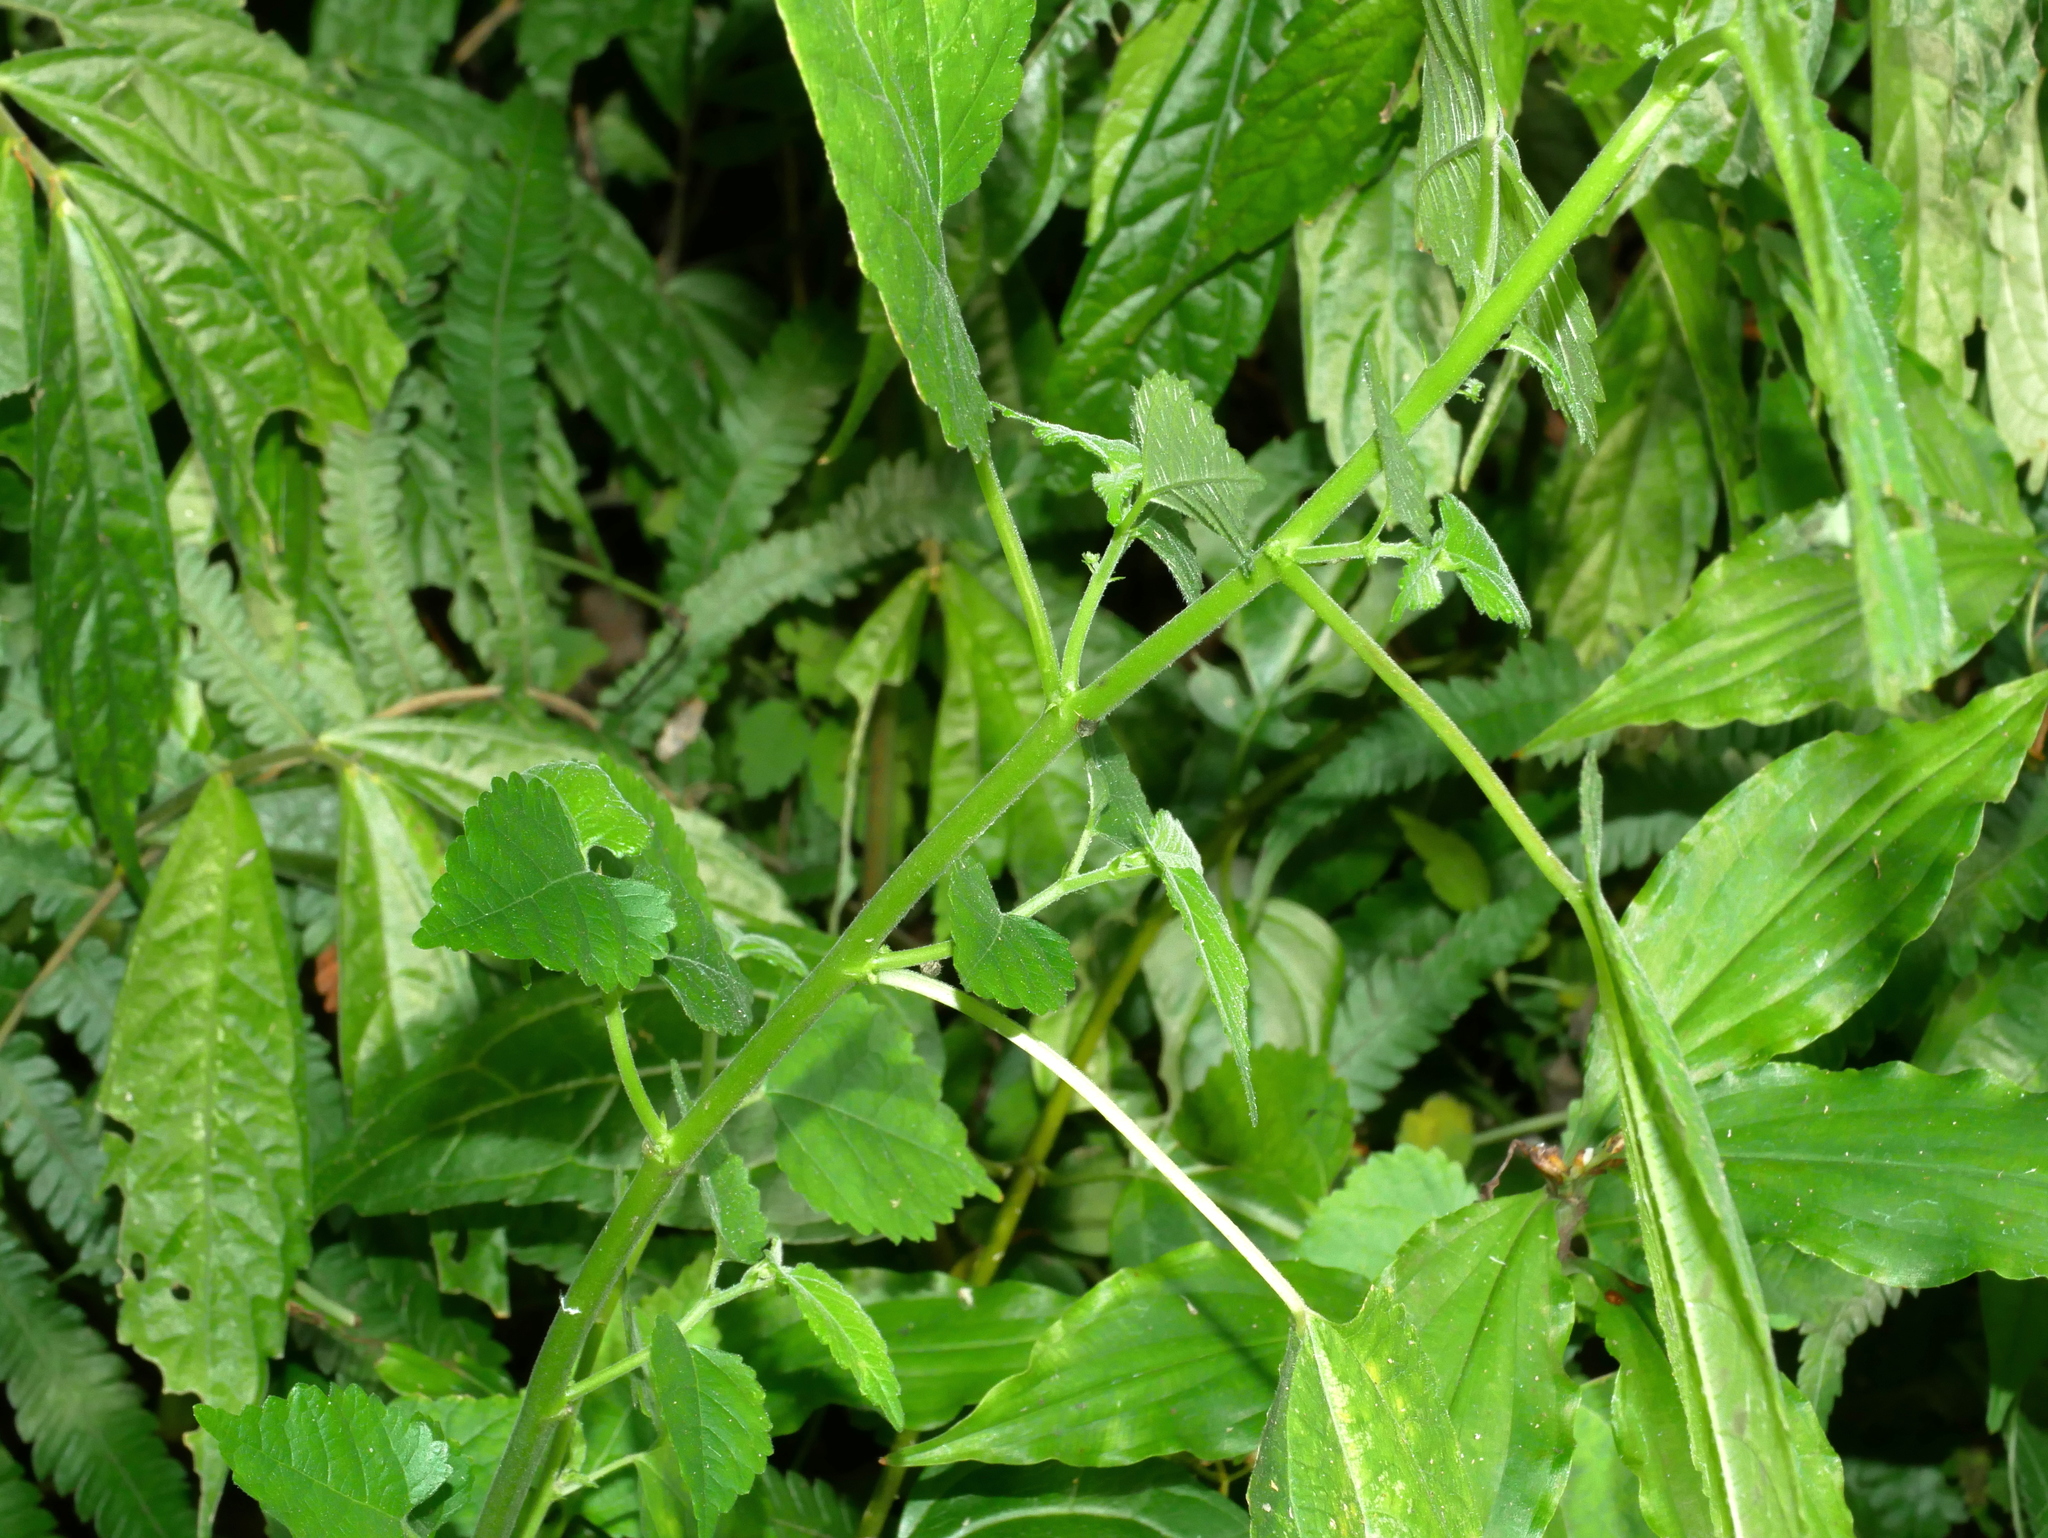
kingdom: Plantae
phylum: Tracheophyta
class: Magnoliopsida
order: Rosales
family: Moraceae
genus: Fatoua
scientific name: Fatoua villosa
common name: Hairy crabweed
